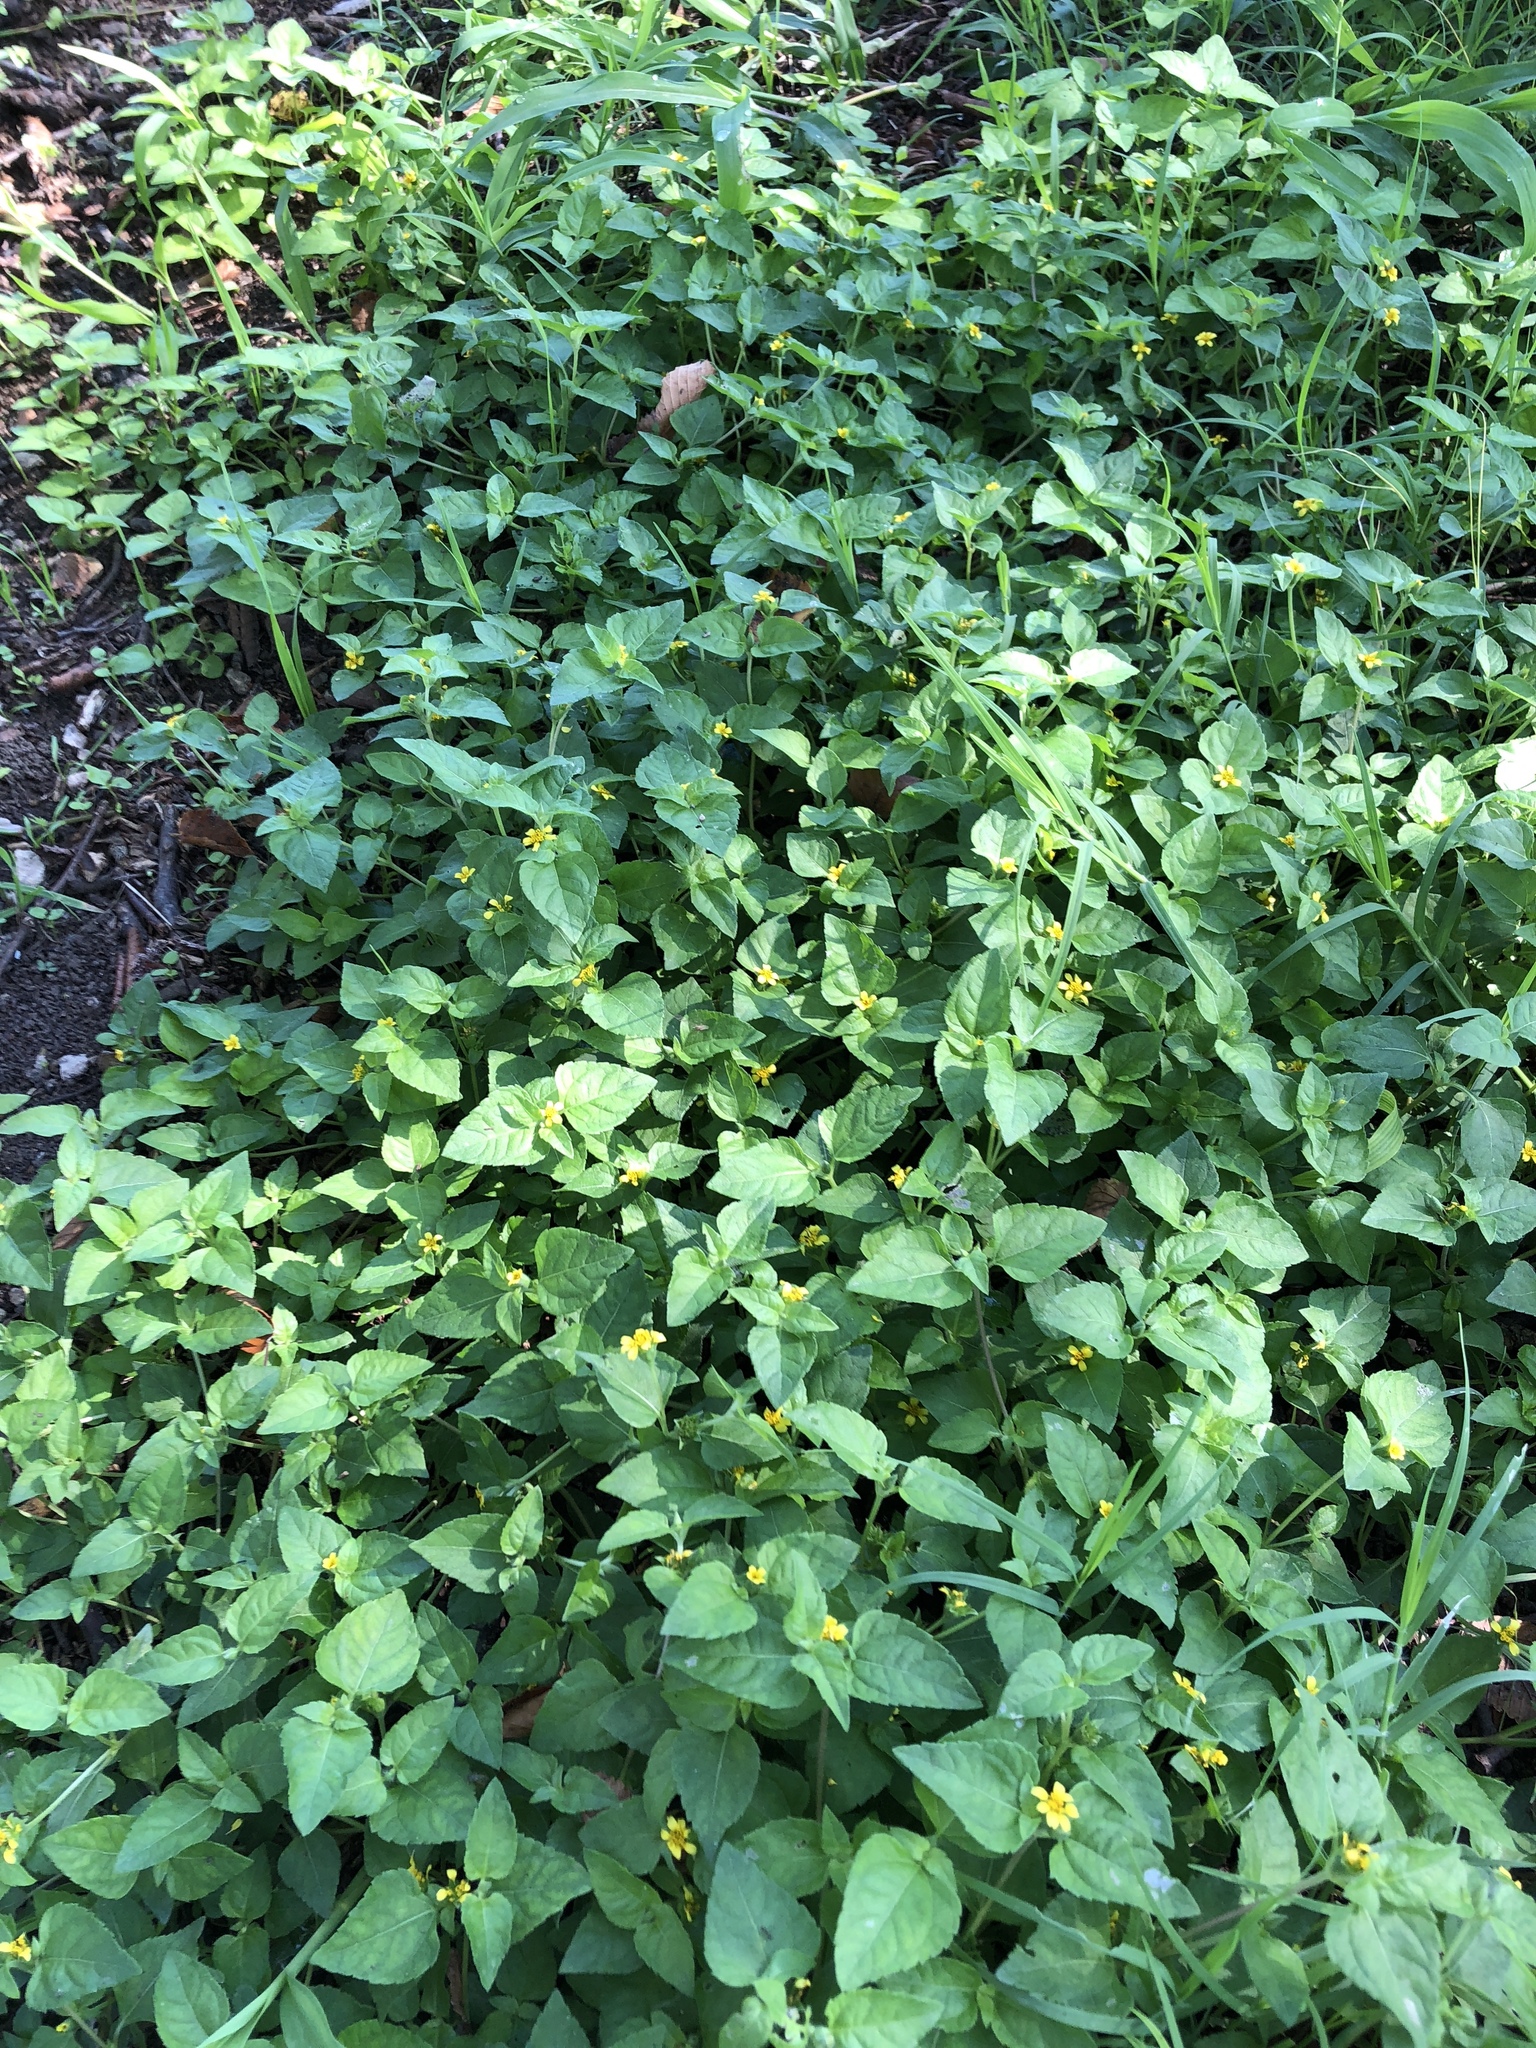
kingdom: Plantae
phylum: Tracheophyta
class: Magnoliopsida
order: Asterales
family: Asteraceae
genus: Calyptocarpus
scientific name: Calyptocarpus vialis
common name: Straggler daisy
